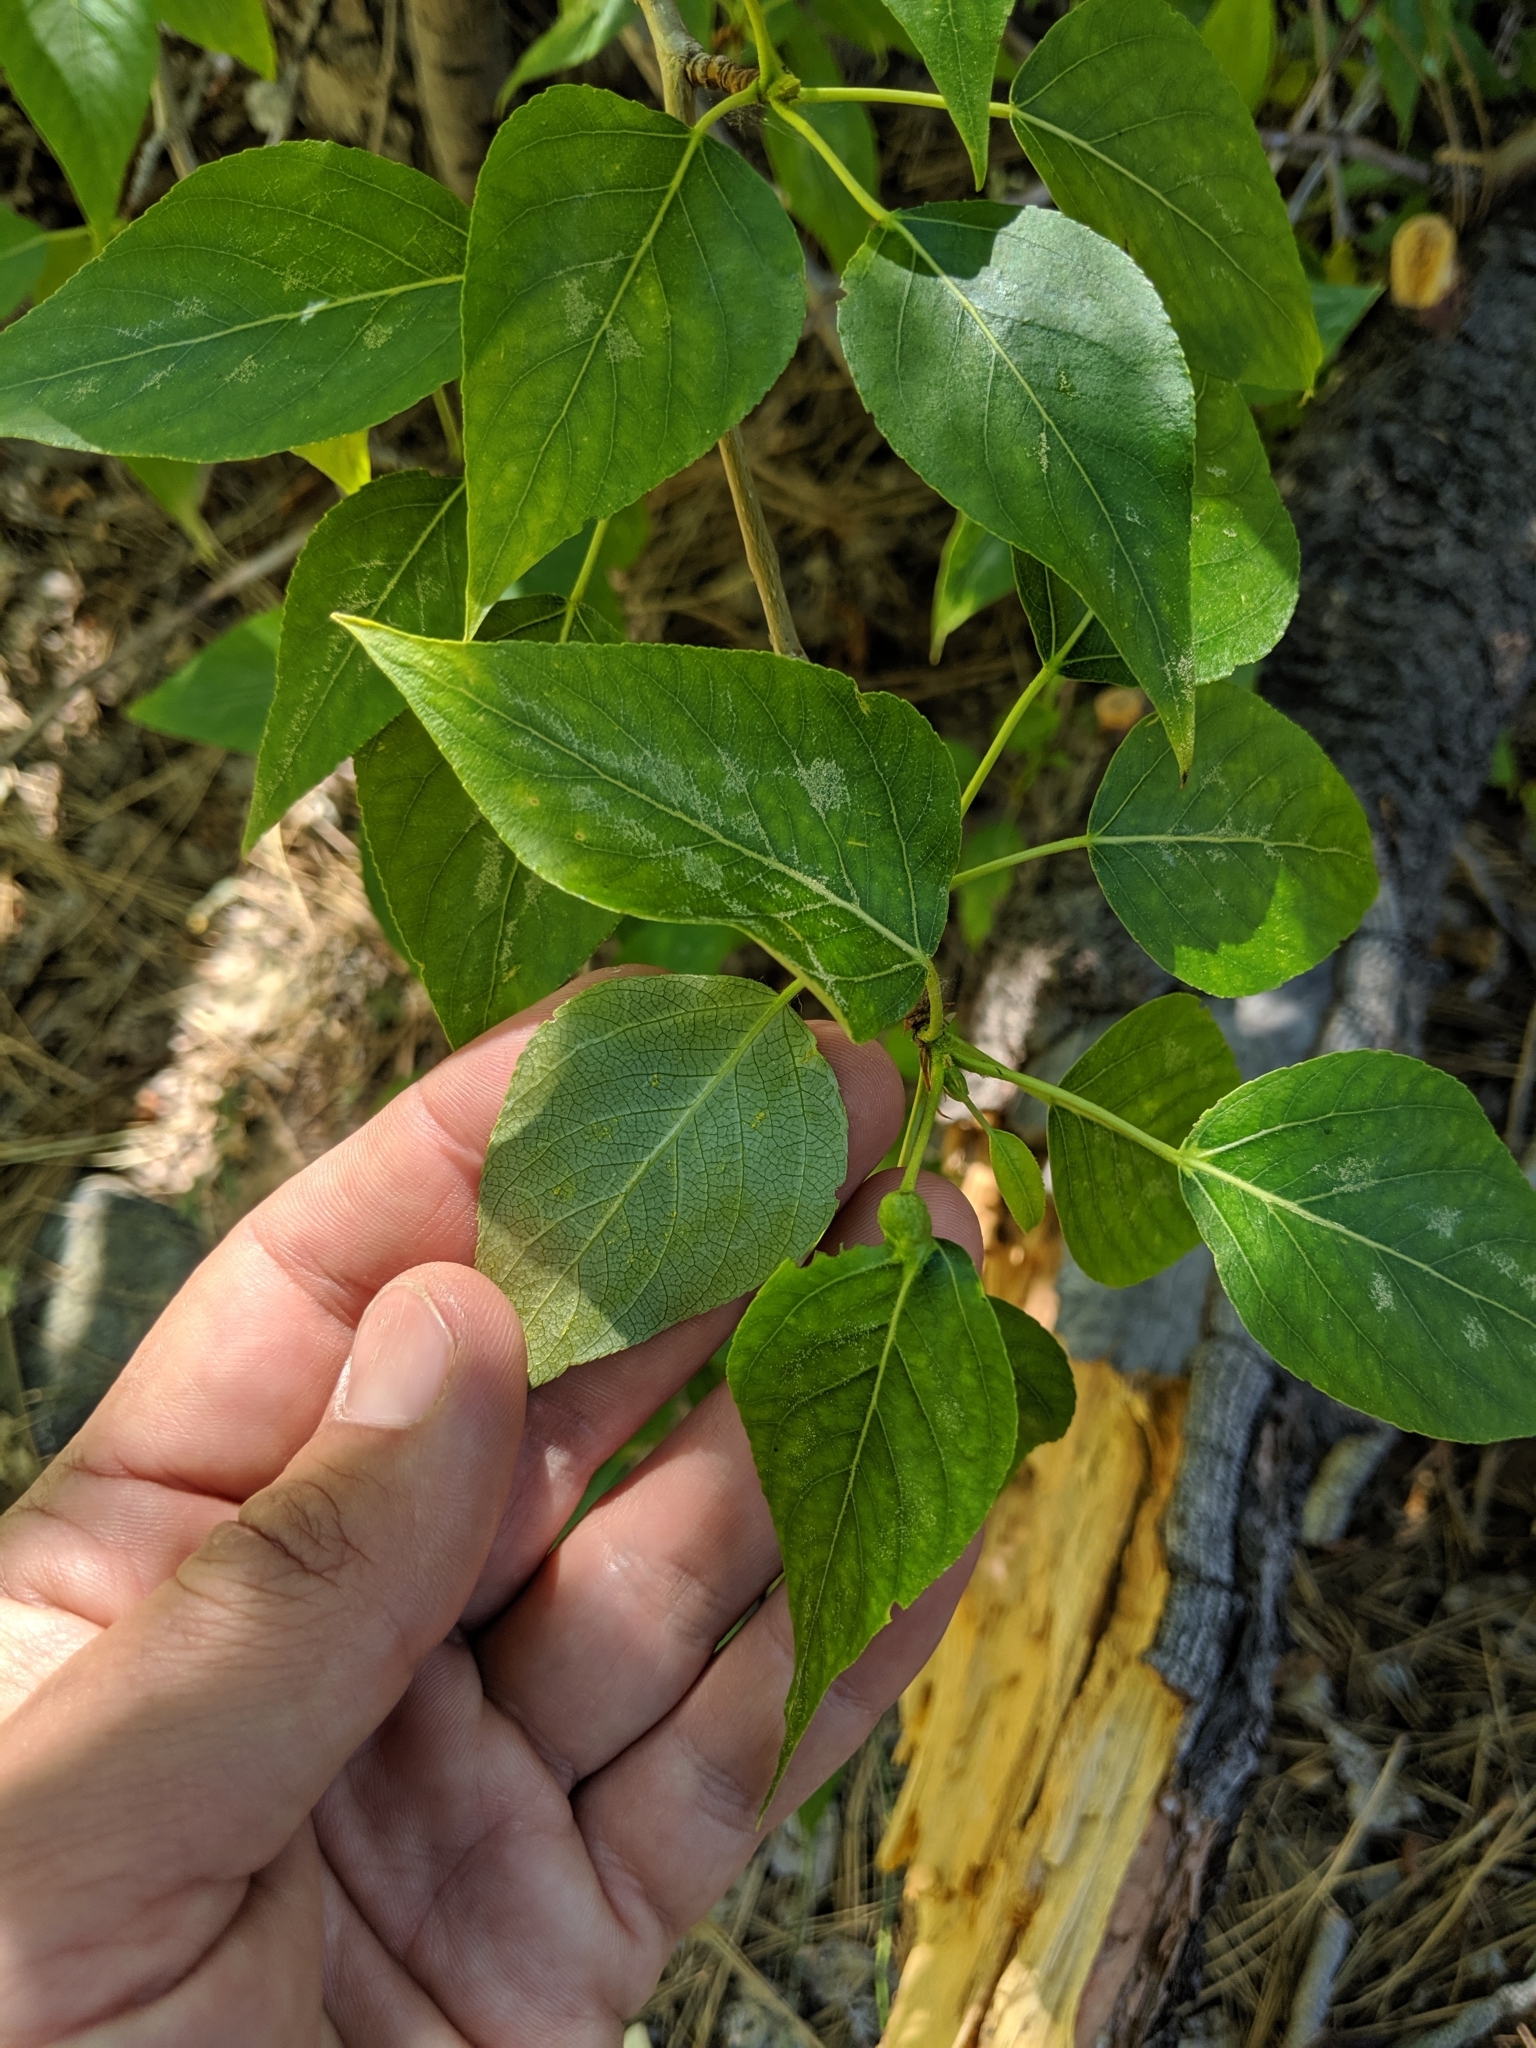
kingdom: Plantae
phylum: Tracheophyta
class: Magnoliopsida
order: Malpighiales
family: Salicaceae
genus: Populus
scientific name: Populus trichocarpa
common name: Black cottonwood
